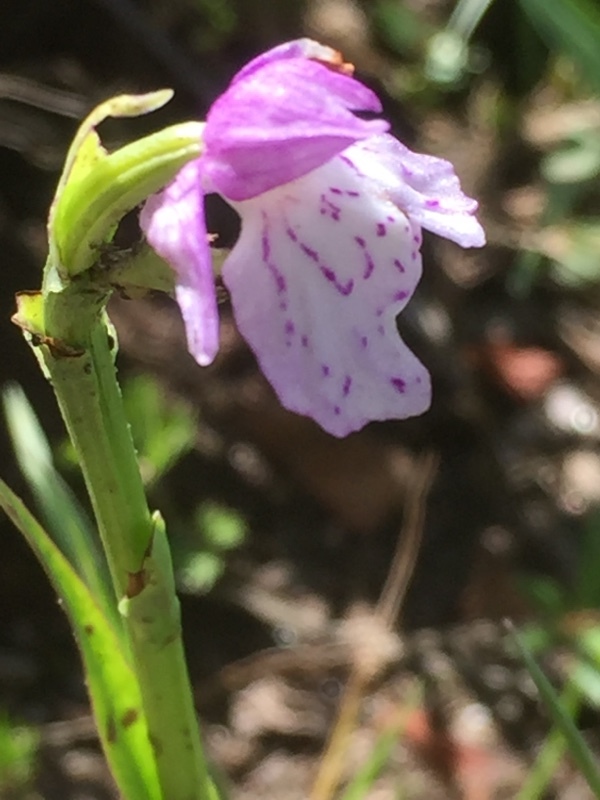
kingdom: Plantae
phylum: Tracheophyta
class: Liliopsida
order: Asparagales
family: Orchidaceae
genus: Dactylorhiza
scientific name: Dactylorhiza maculata
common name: Heath spotted-orchid
